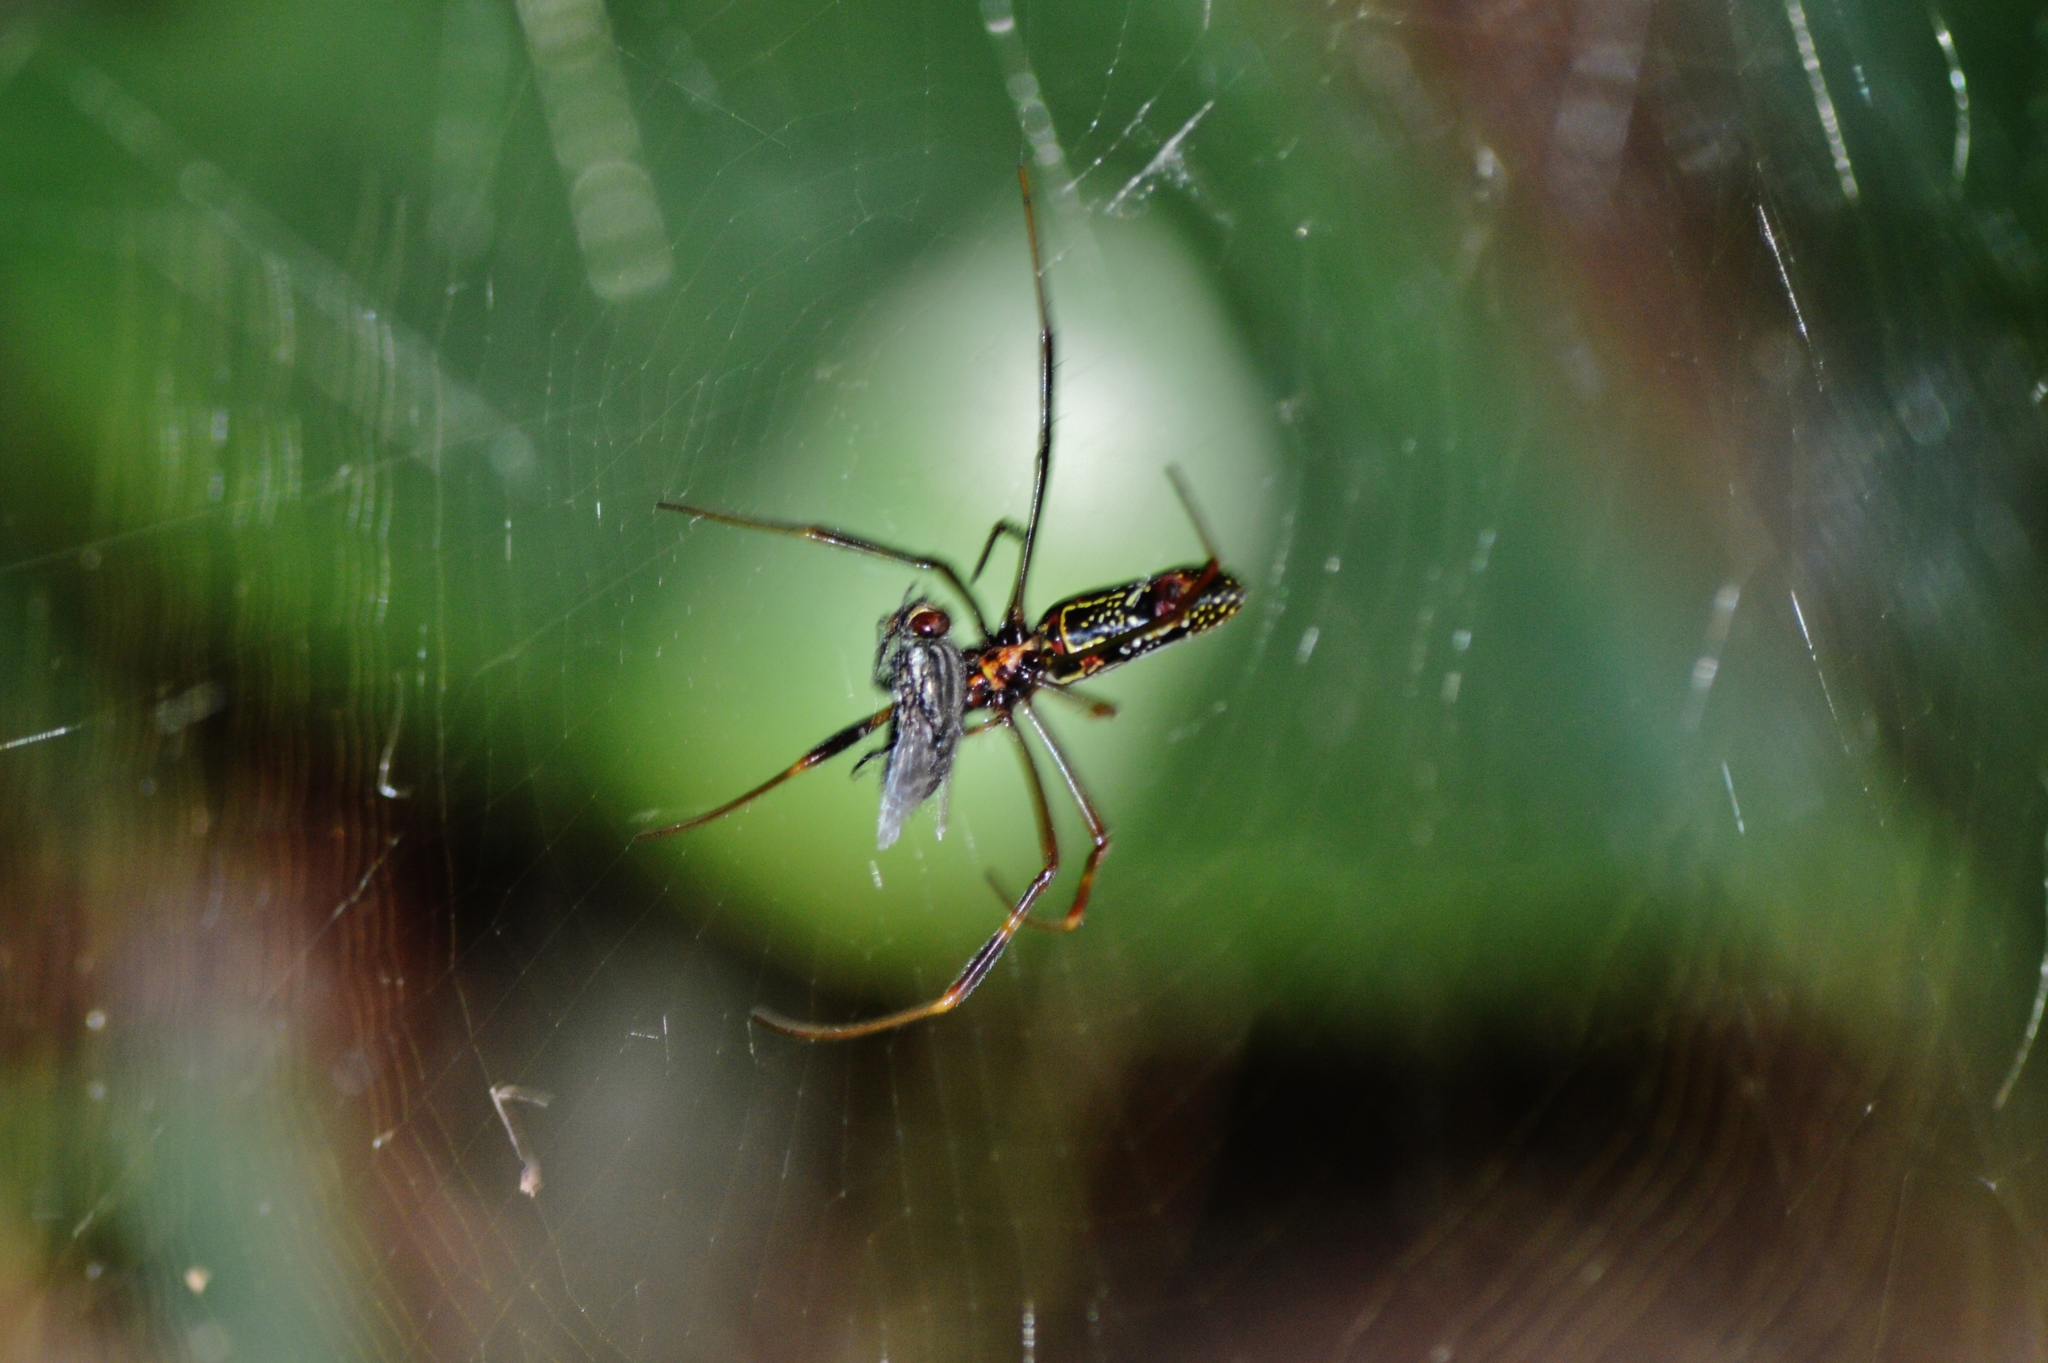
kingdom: Animalia
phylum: Arthropoda
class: Arachnida
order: Araneae
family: Araneidae
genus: Trichonephila
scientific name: Trichonephila clavipes
